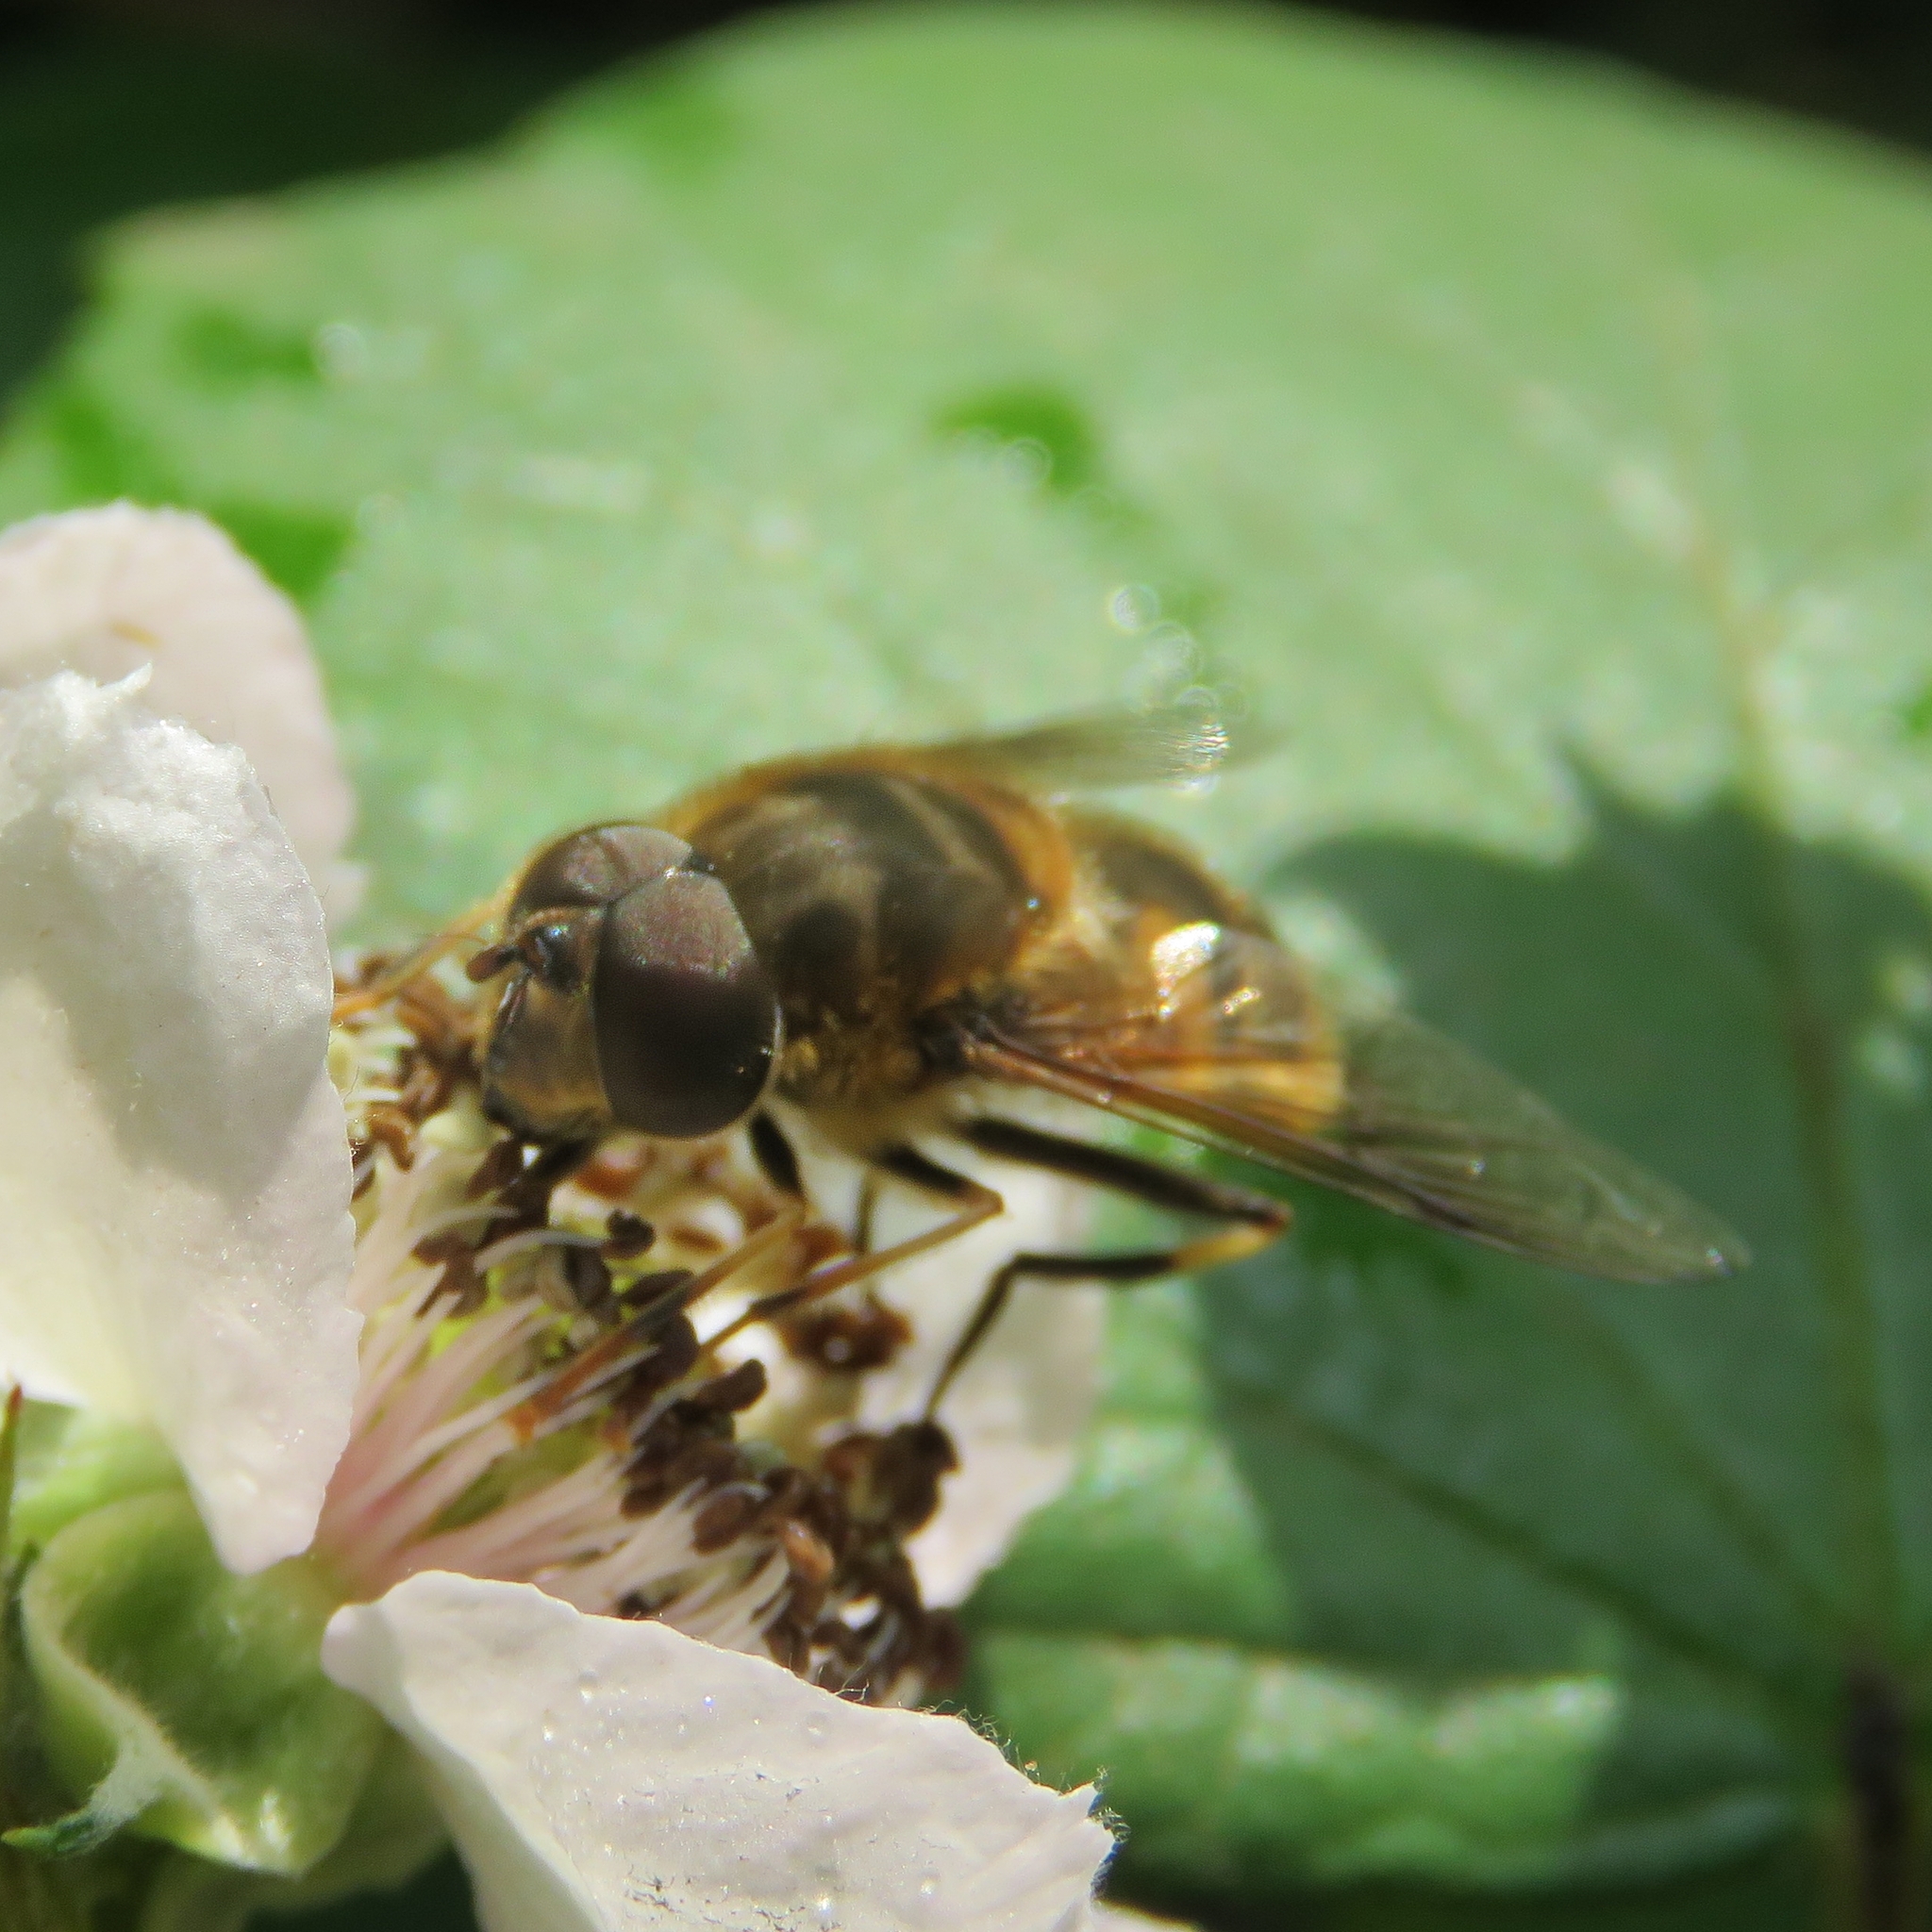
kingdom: Animalia
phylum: Arthropoda
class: Insecta
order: Diptera
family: Syrphidae
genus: Eristalis
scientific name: Eristalis pertinax
